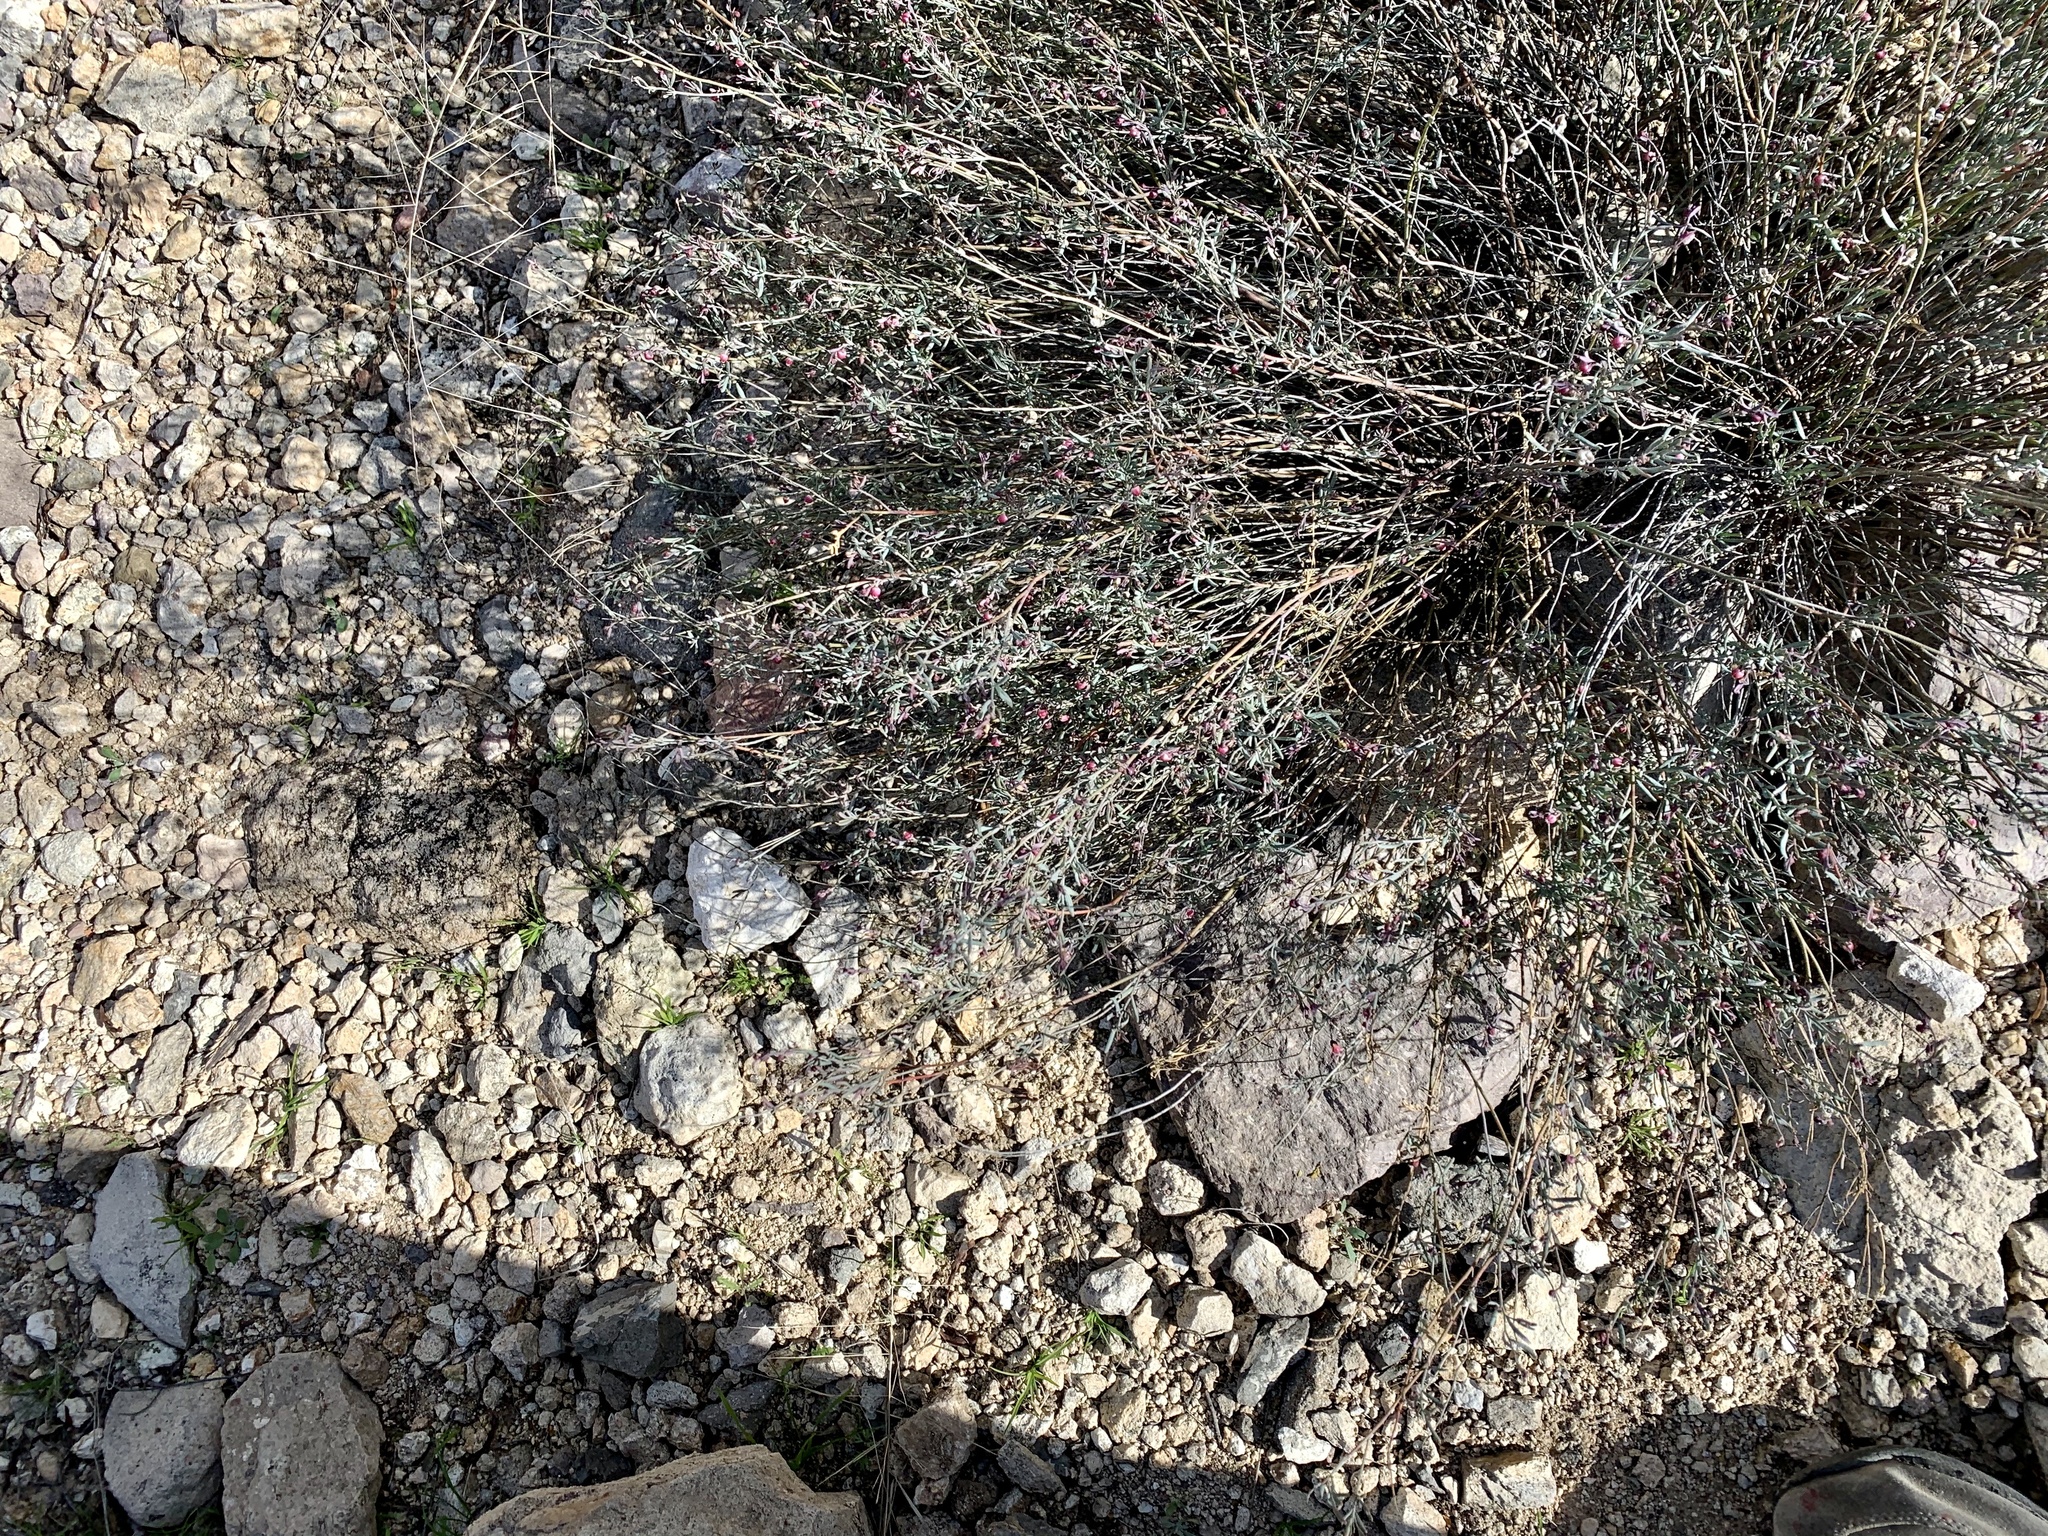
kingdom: Plantae
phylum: Tracheophyta
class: Magnoliopsida
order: Sapindales
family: Rutaceae
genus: Thamnosma
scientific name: Thamnosma texana
